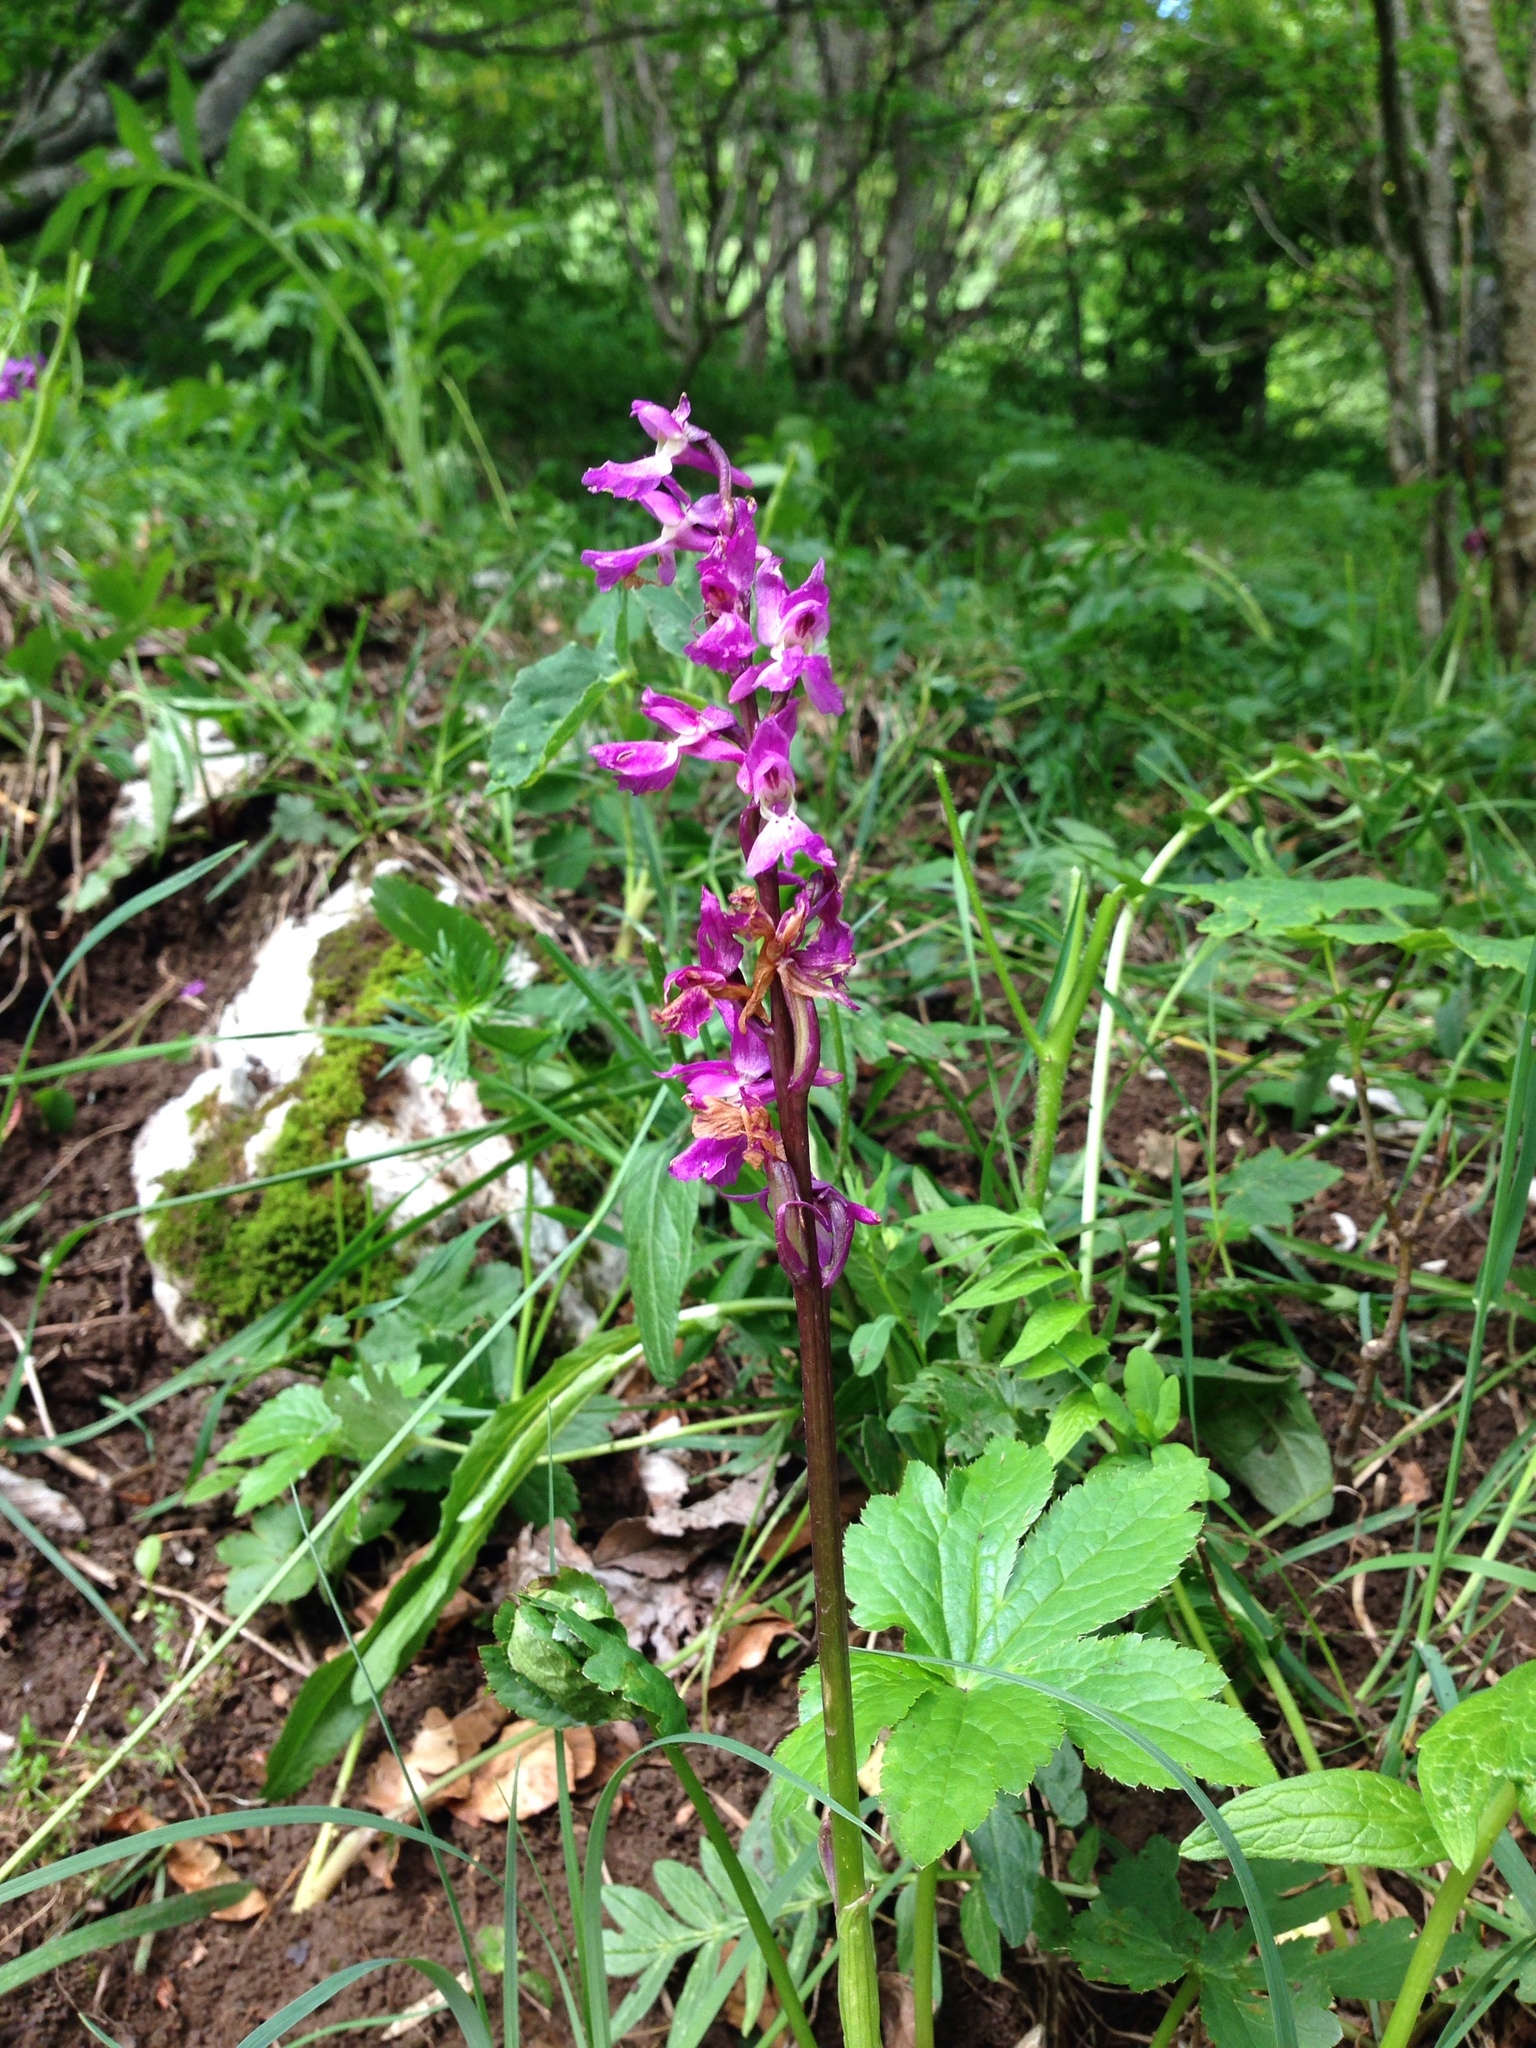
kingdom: Plantae
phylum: Tracheophyta
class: Liliopsida
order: Asparagales
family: Orchidaceae
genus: Orchis
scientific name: Orchis mascula
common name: Early-purple orchid
